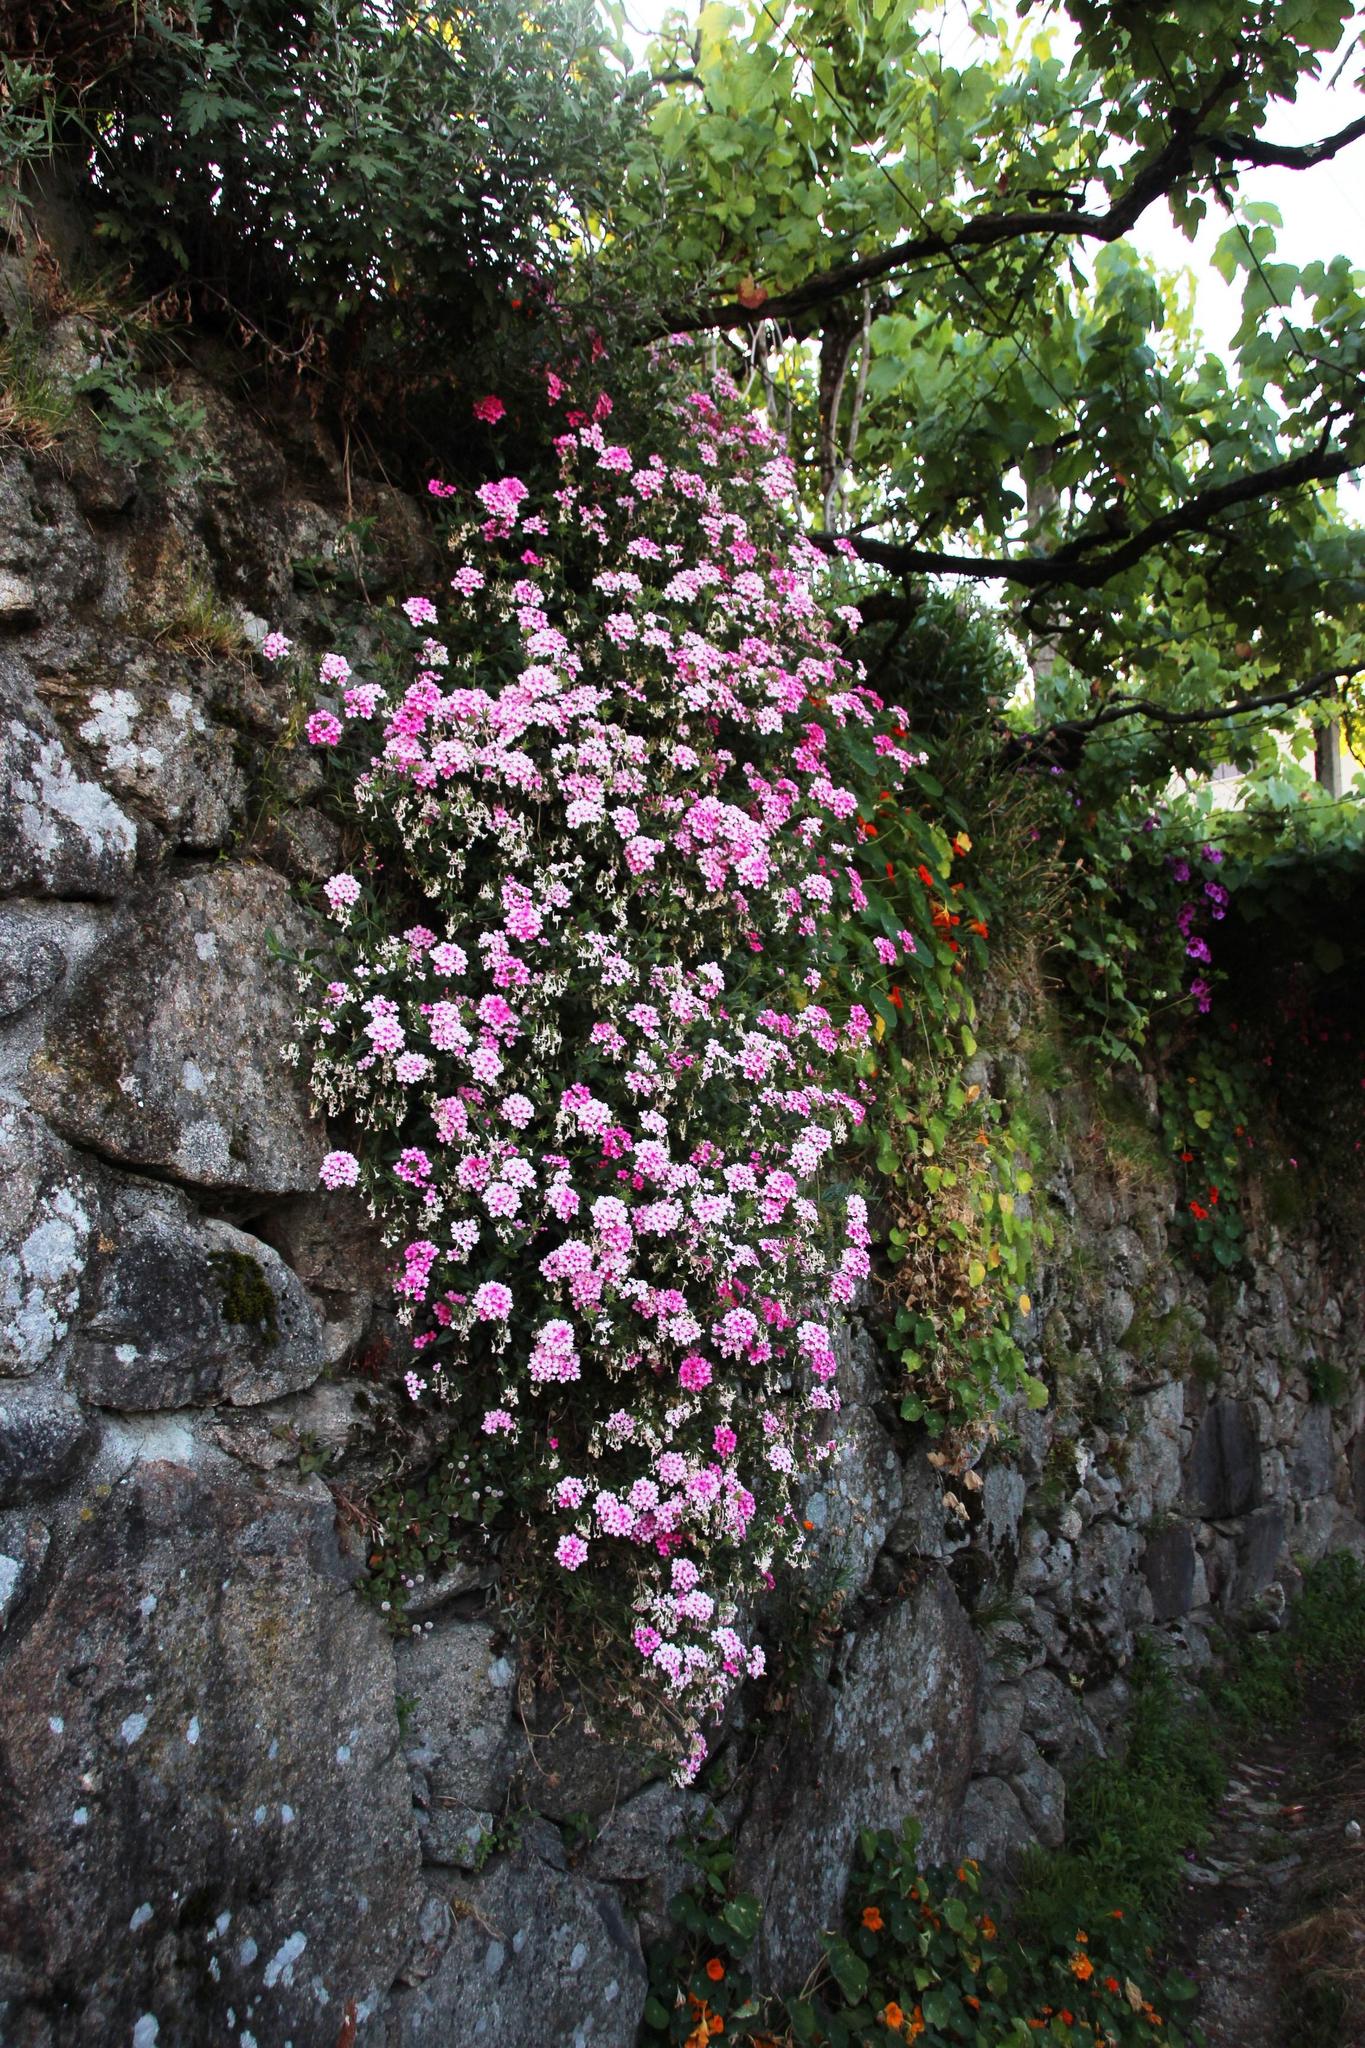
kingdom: Plantae
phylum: Tracheophyta
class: Magnoliopsida
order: Caryophyllales
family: Polygonaceae
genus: Persicaria
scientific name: Persicaria capitata
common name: Pinkhead smartweed
